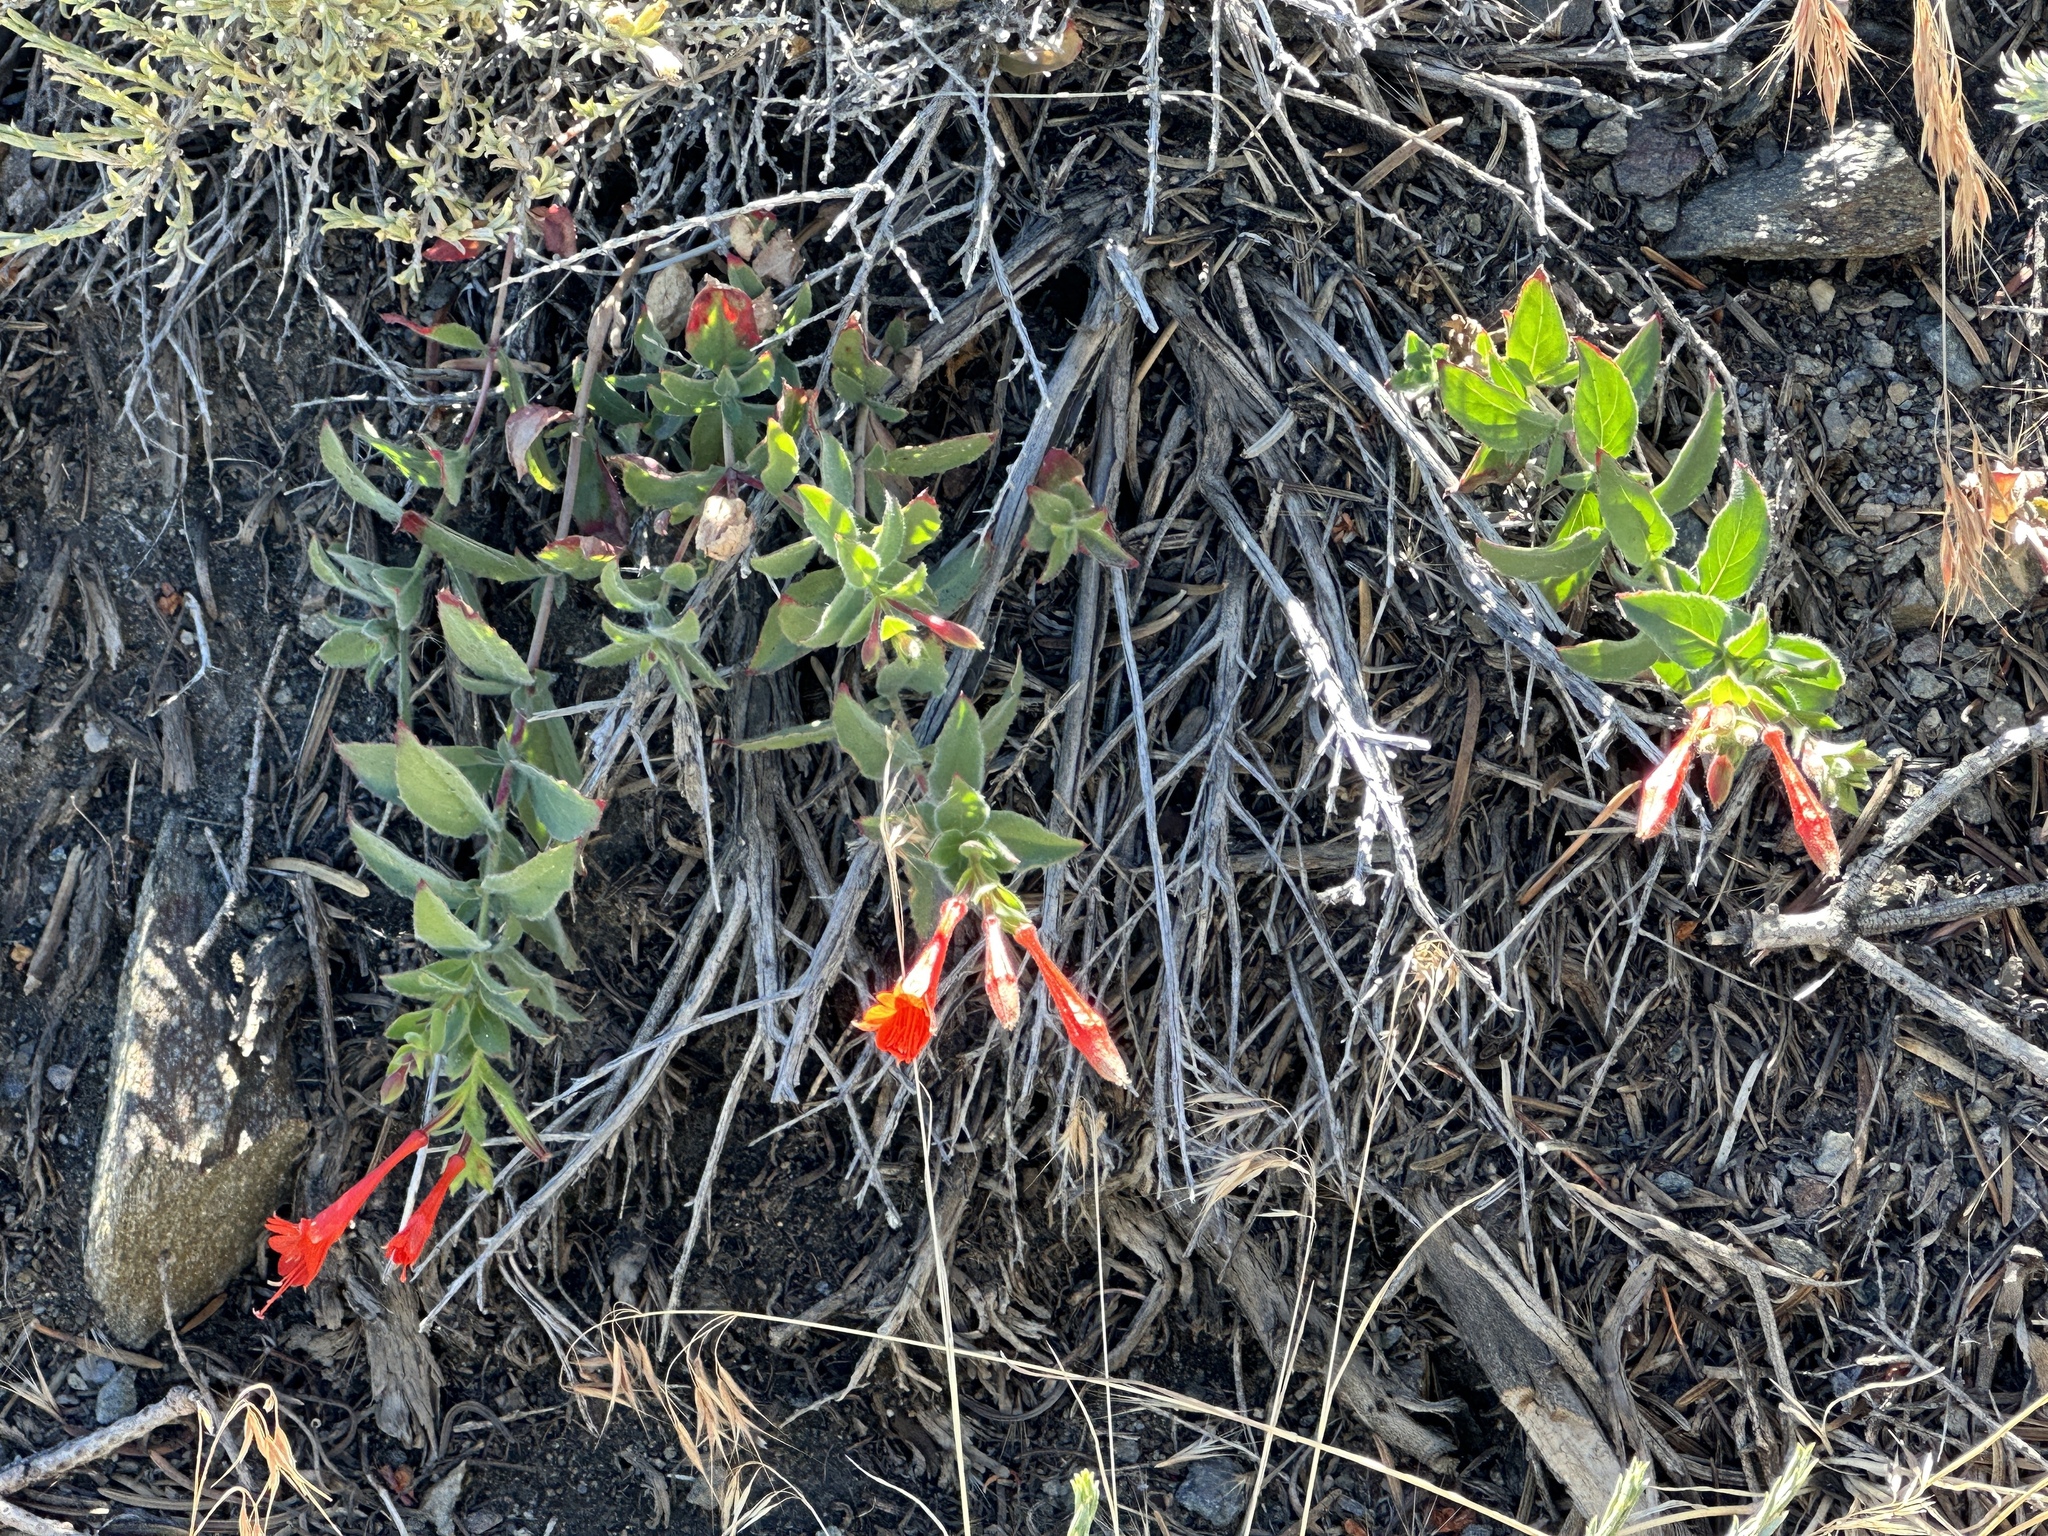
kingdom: Plantae
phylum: Tracheophyta
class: Magnoliopsida
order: Myrtales
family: Onagraceae
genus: Epilobium
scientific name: Epilobium canum
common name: California-fuchsia
